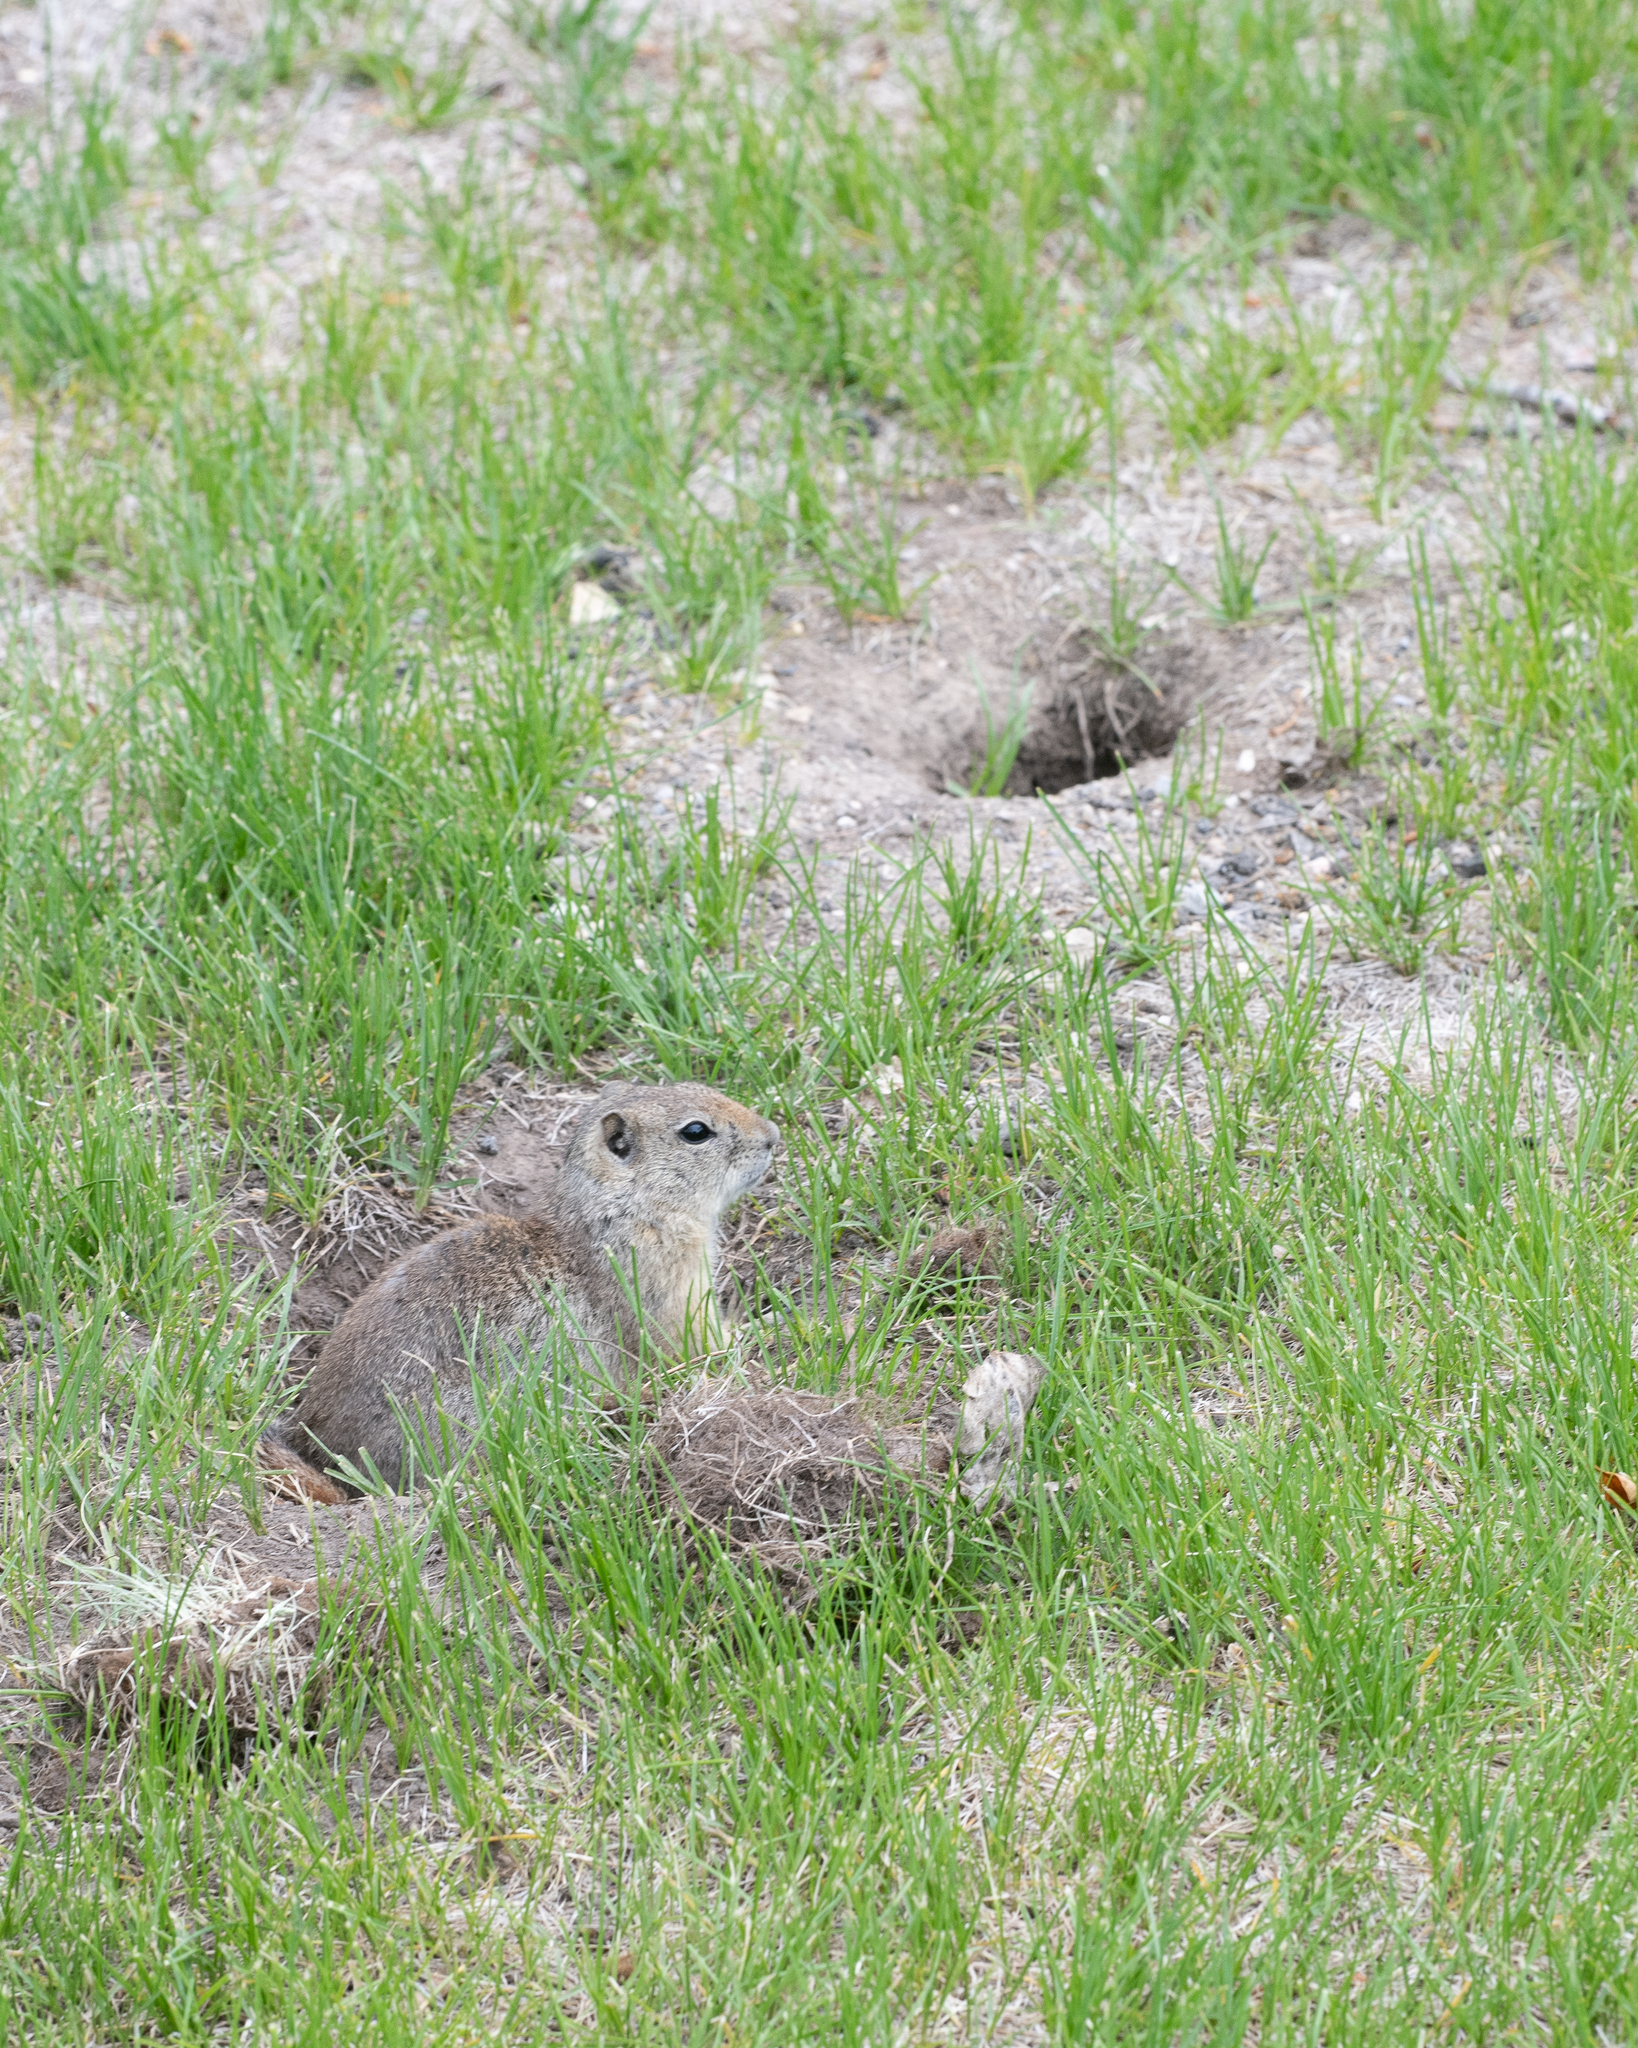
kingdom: Animalia
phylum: Chordata
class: Mammalia
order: Rodentia
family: Sciuridae
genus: Urocitellus
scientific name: Urocitellus beldingi
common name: Belding's ground squirrel
